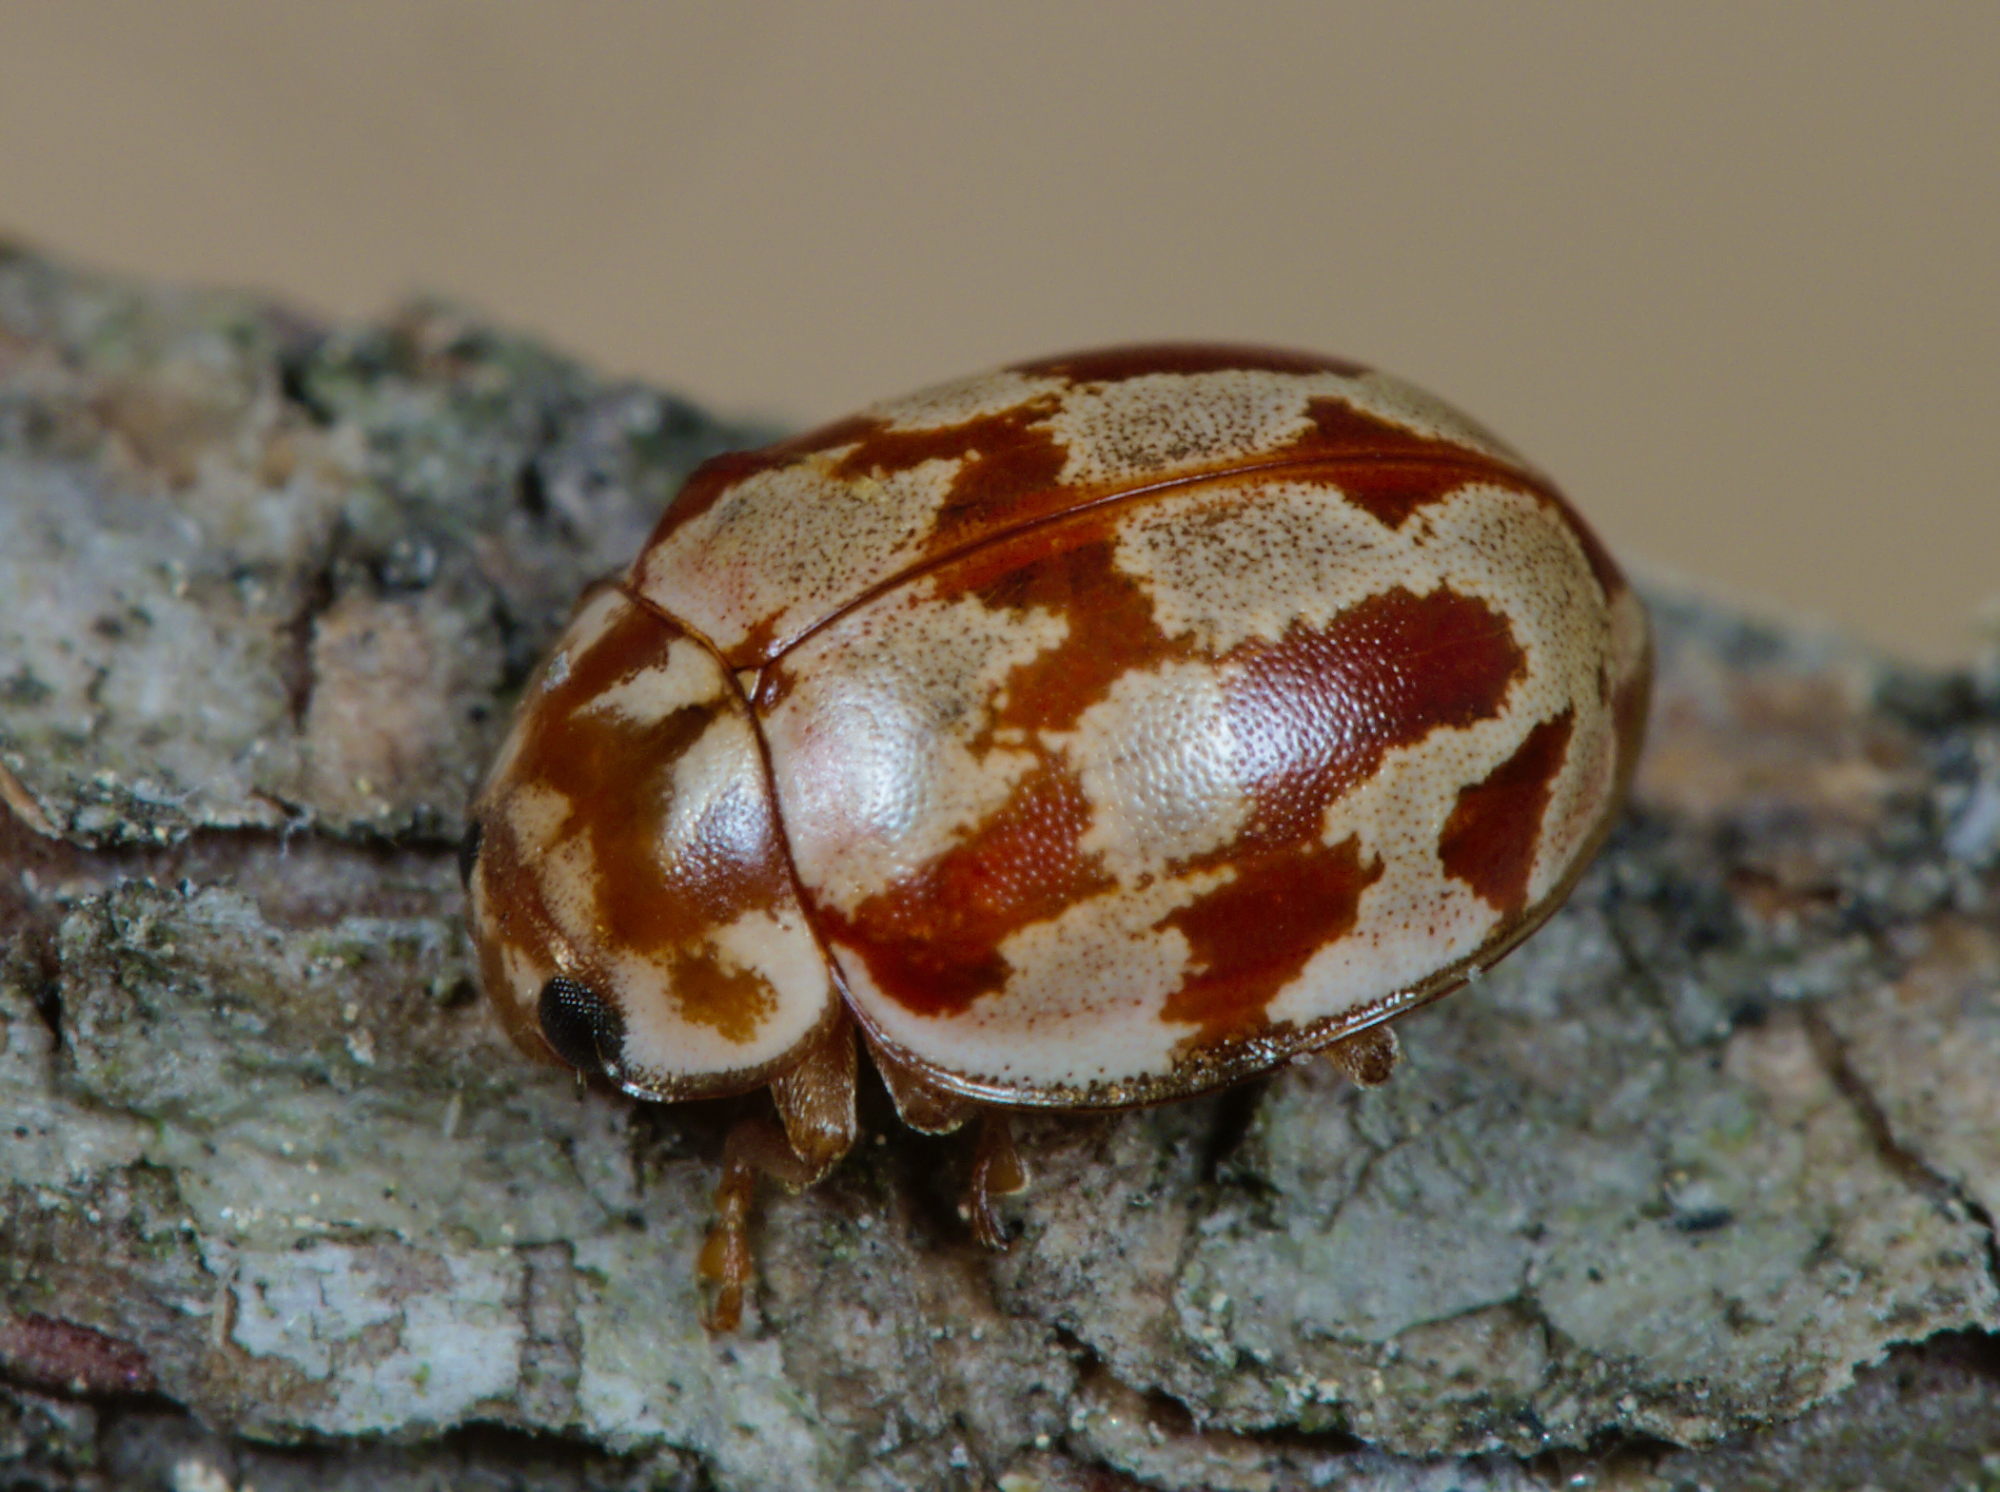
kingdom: Animalia
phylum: Arthropoda
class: Insecta
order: Coleoptera
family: Coccinellidae
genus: Myrrha
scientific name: Myrrha octodecimguttata
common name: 18-spot ladybird
